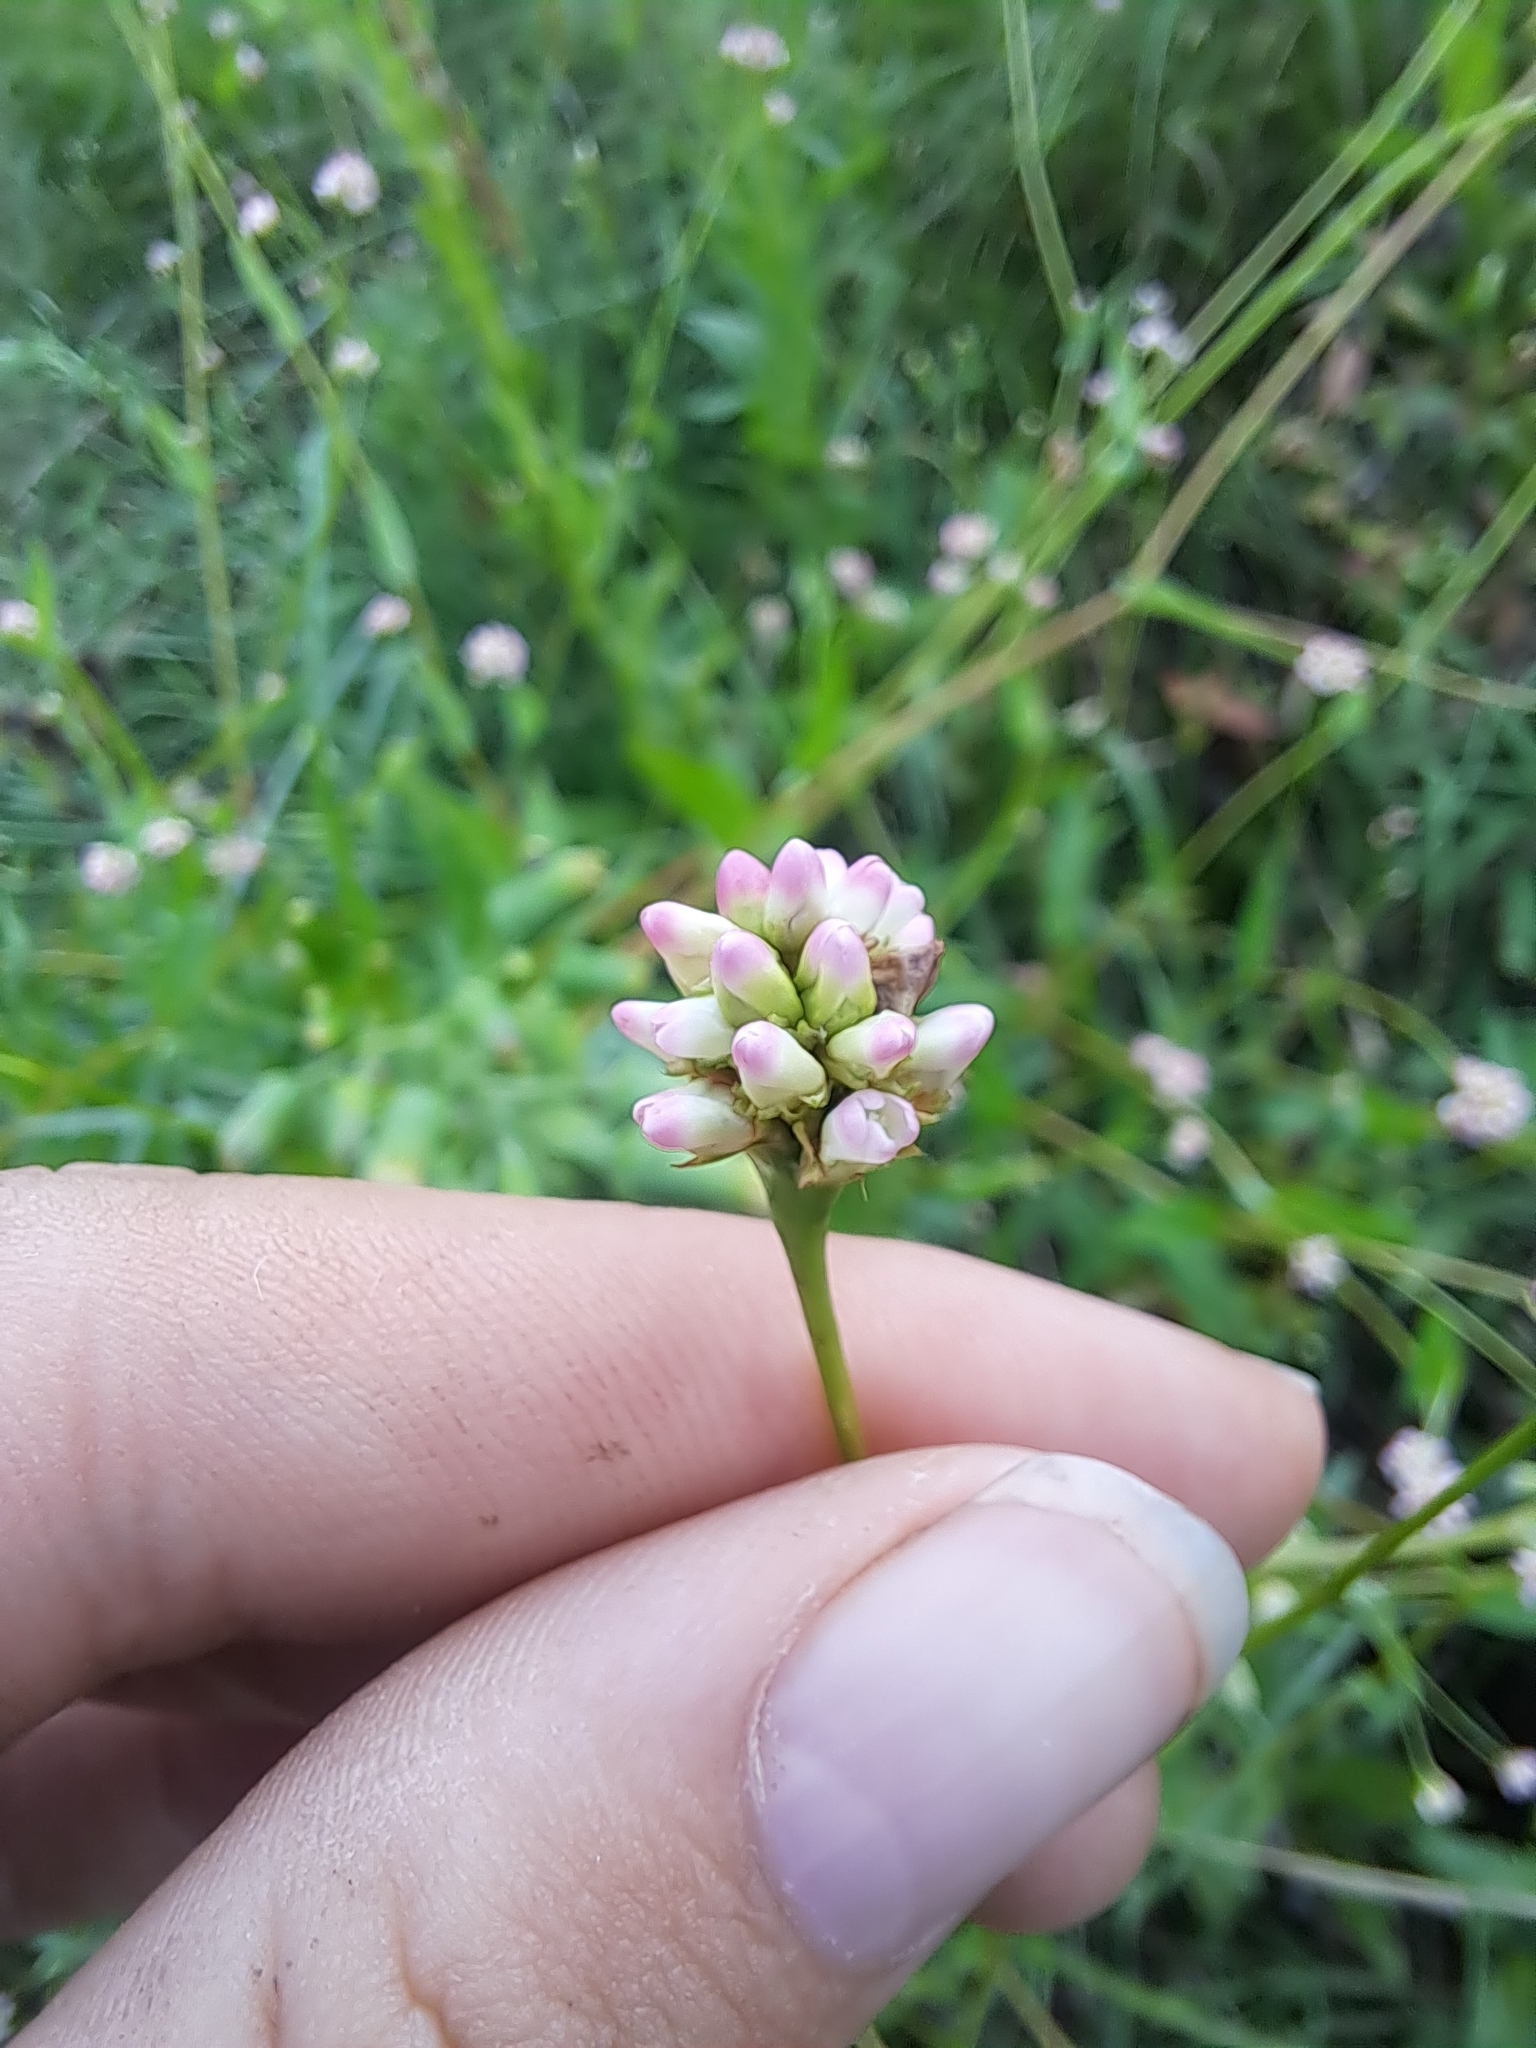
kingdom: Plantae
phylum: Tracheophyta
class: Magnoliopsida
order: Caryophyllales
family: Polygonaceae
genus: Persicaria
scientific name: Persicaria sagittata
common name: American tearthumb
